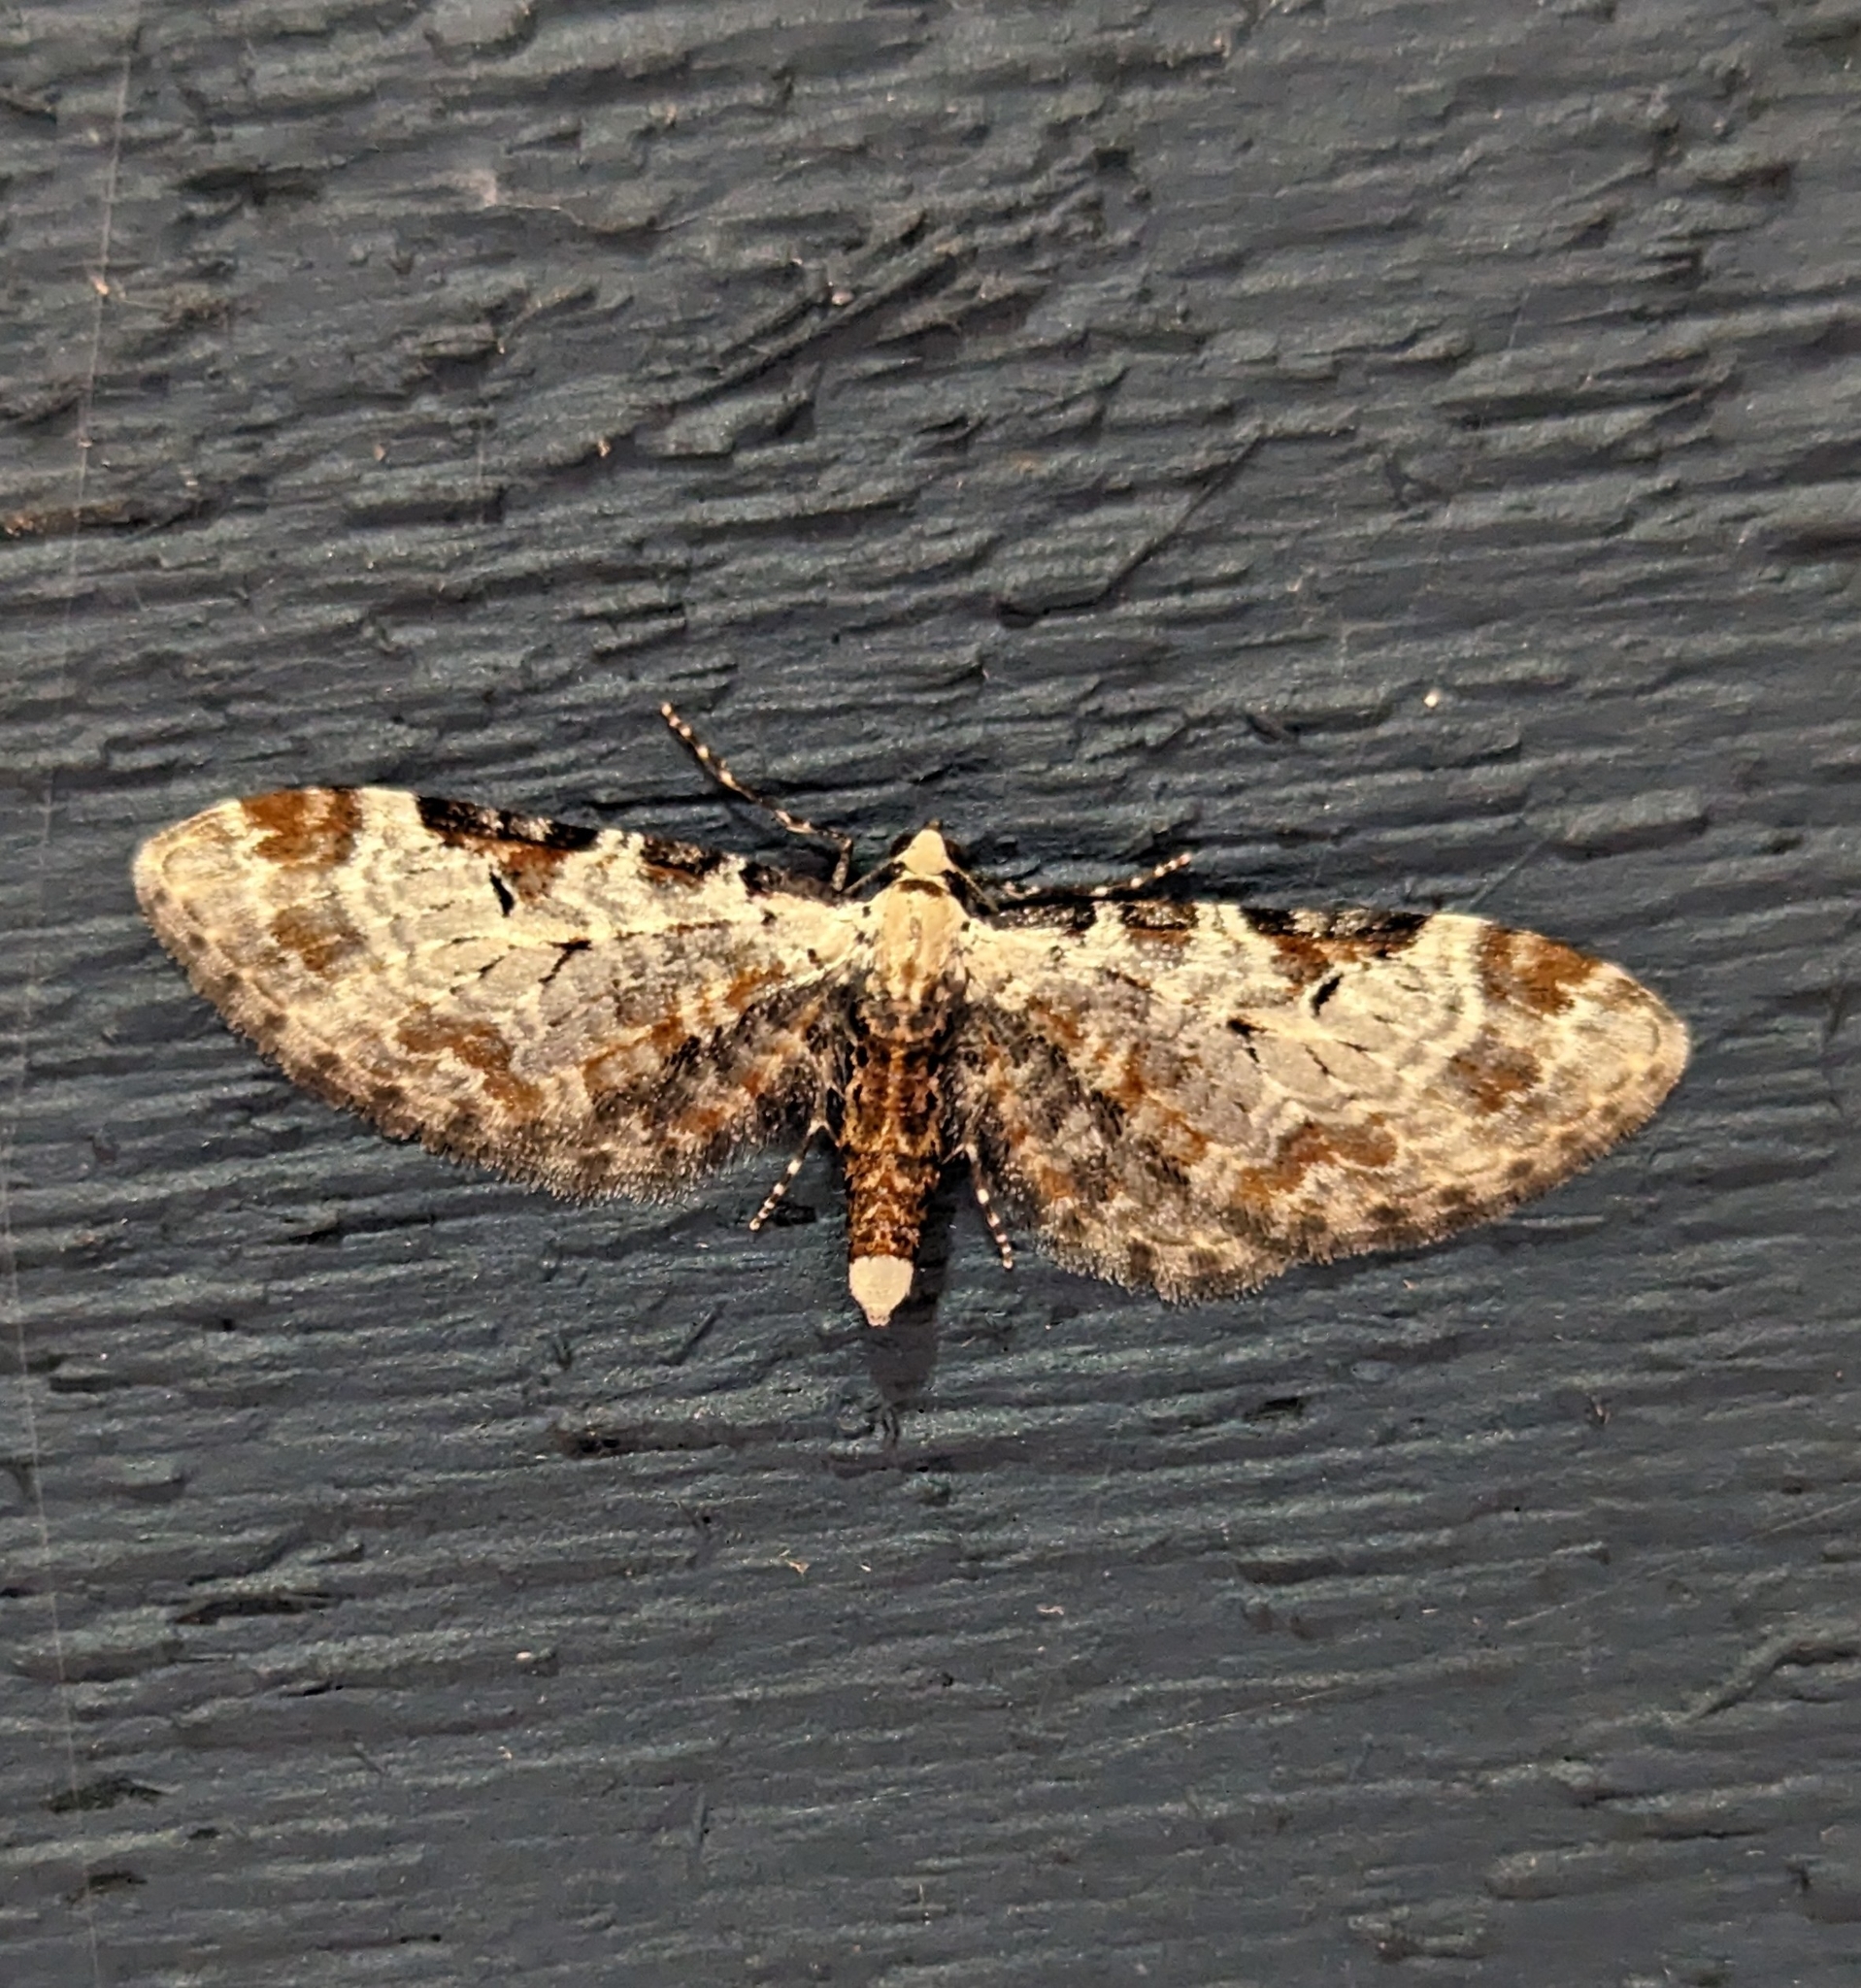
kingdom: Animalia
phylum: Arthropoda
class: Insecta
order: Lepidoptera
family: Geometridae
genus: Eupithecia
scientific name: Eupithecia ravocostaliata
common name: Great varigated pug
